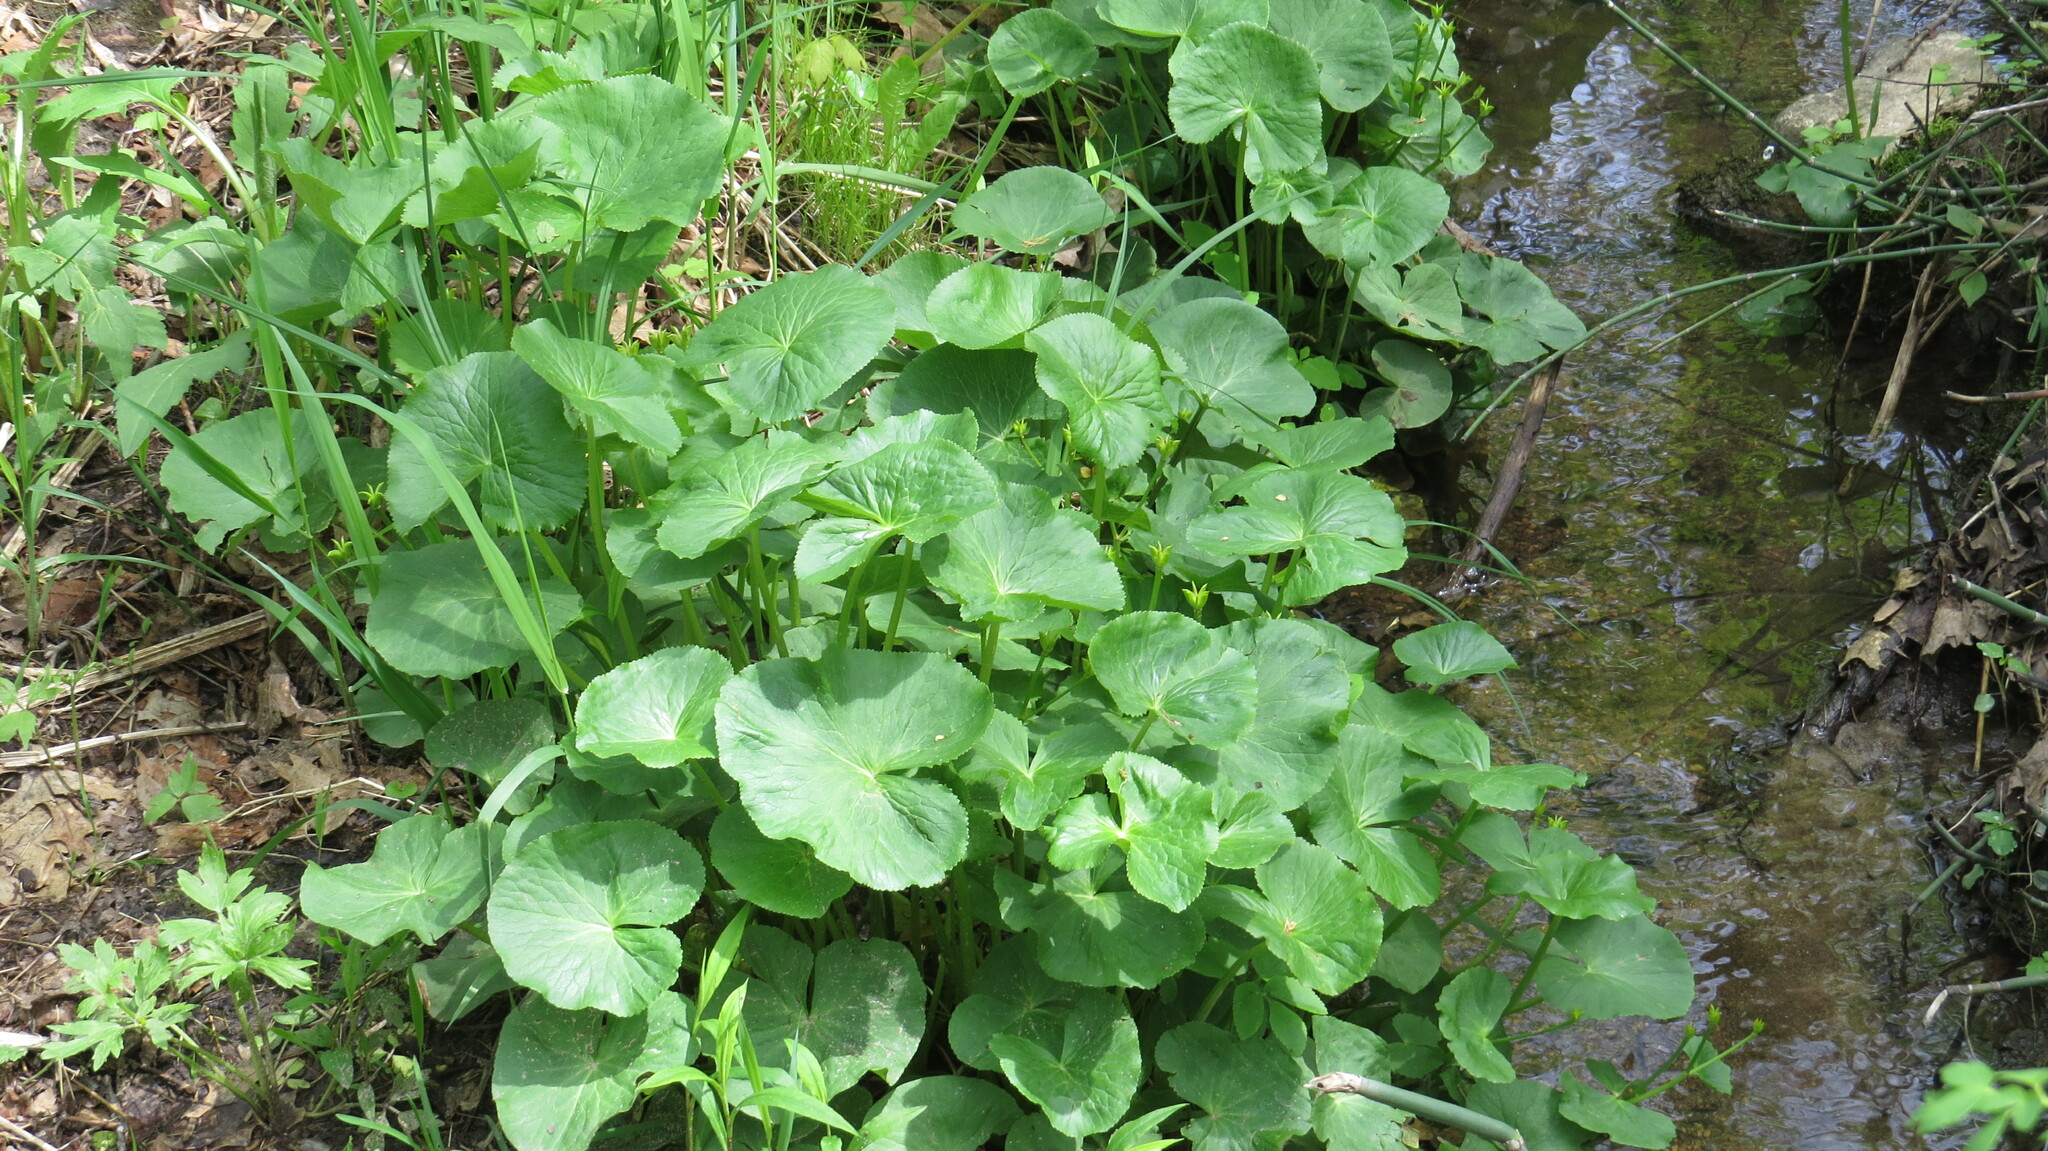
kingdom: Plantae
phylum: Tracheophyta
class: Magnoliopsida
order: Ranunculales
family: Ranunculaceae
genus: Caltha
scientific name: Caltha palustris
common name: Marsh marigold
